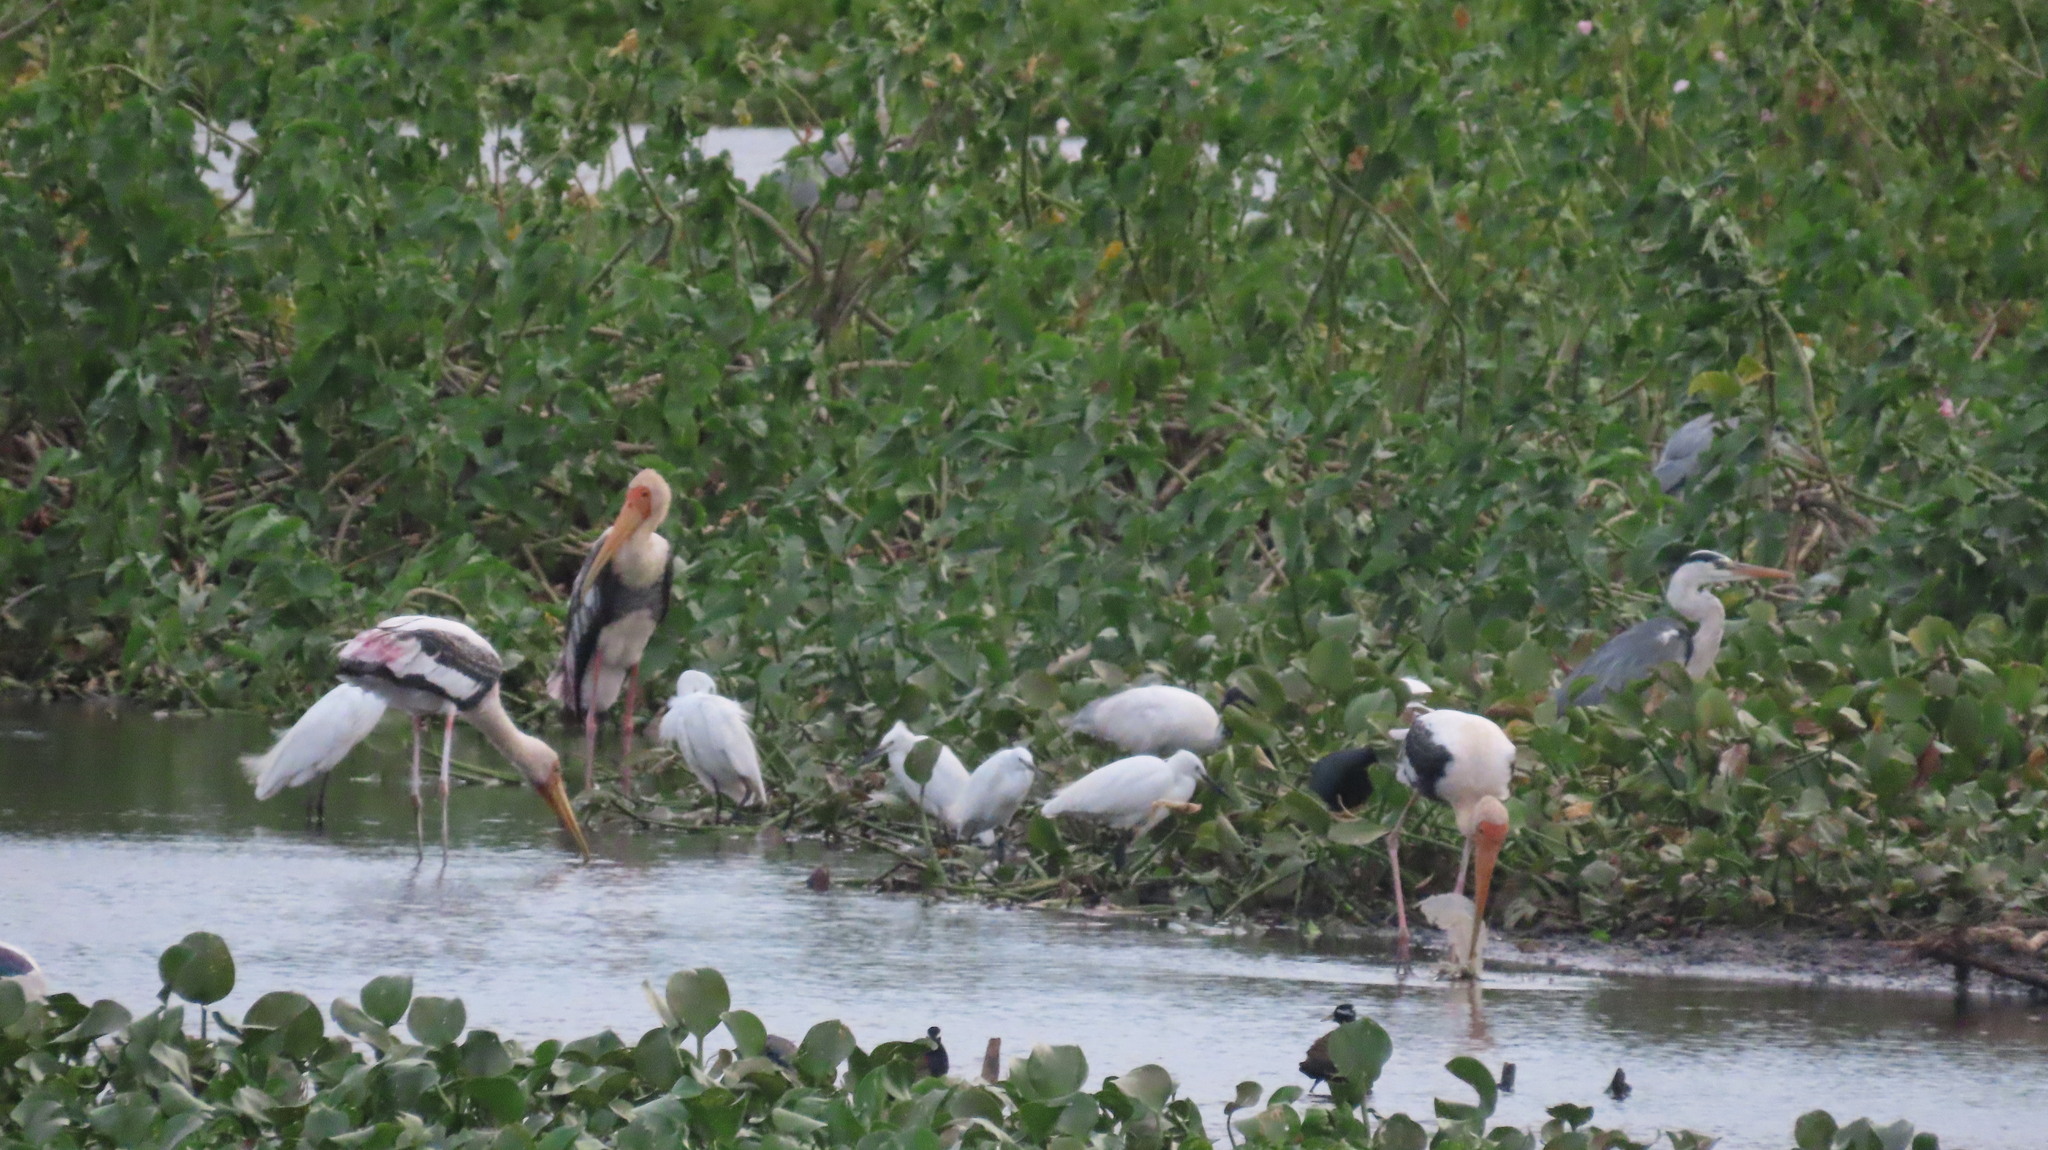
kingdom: Animalia
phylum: Chordata
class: Aves
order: Pelecaniformes
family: Ardeidae
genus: Egretta
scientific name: Egretta garzetta
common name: Little egret
